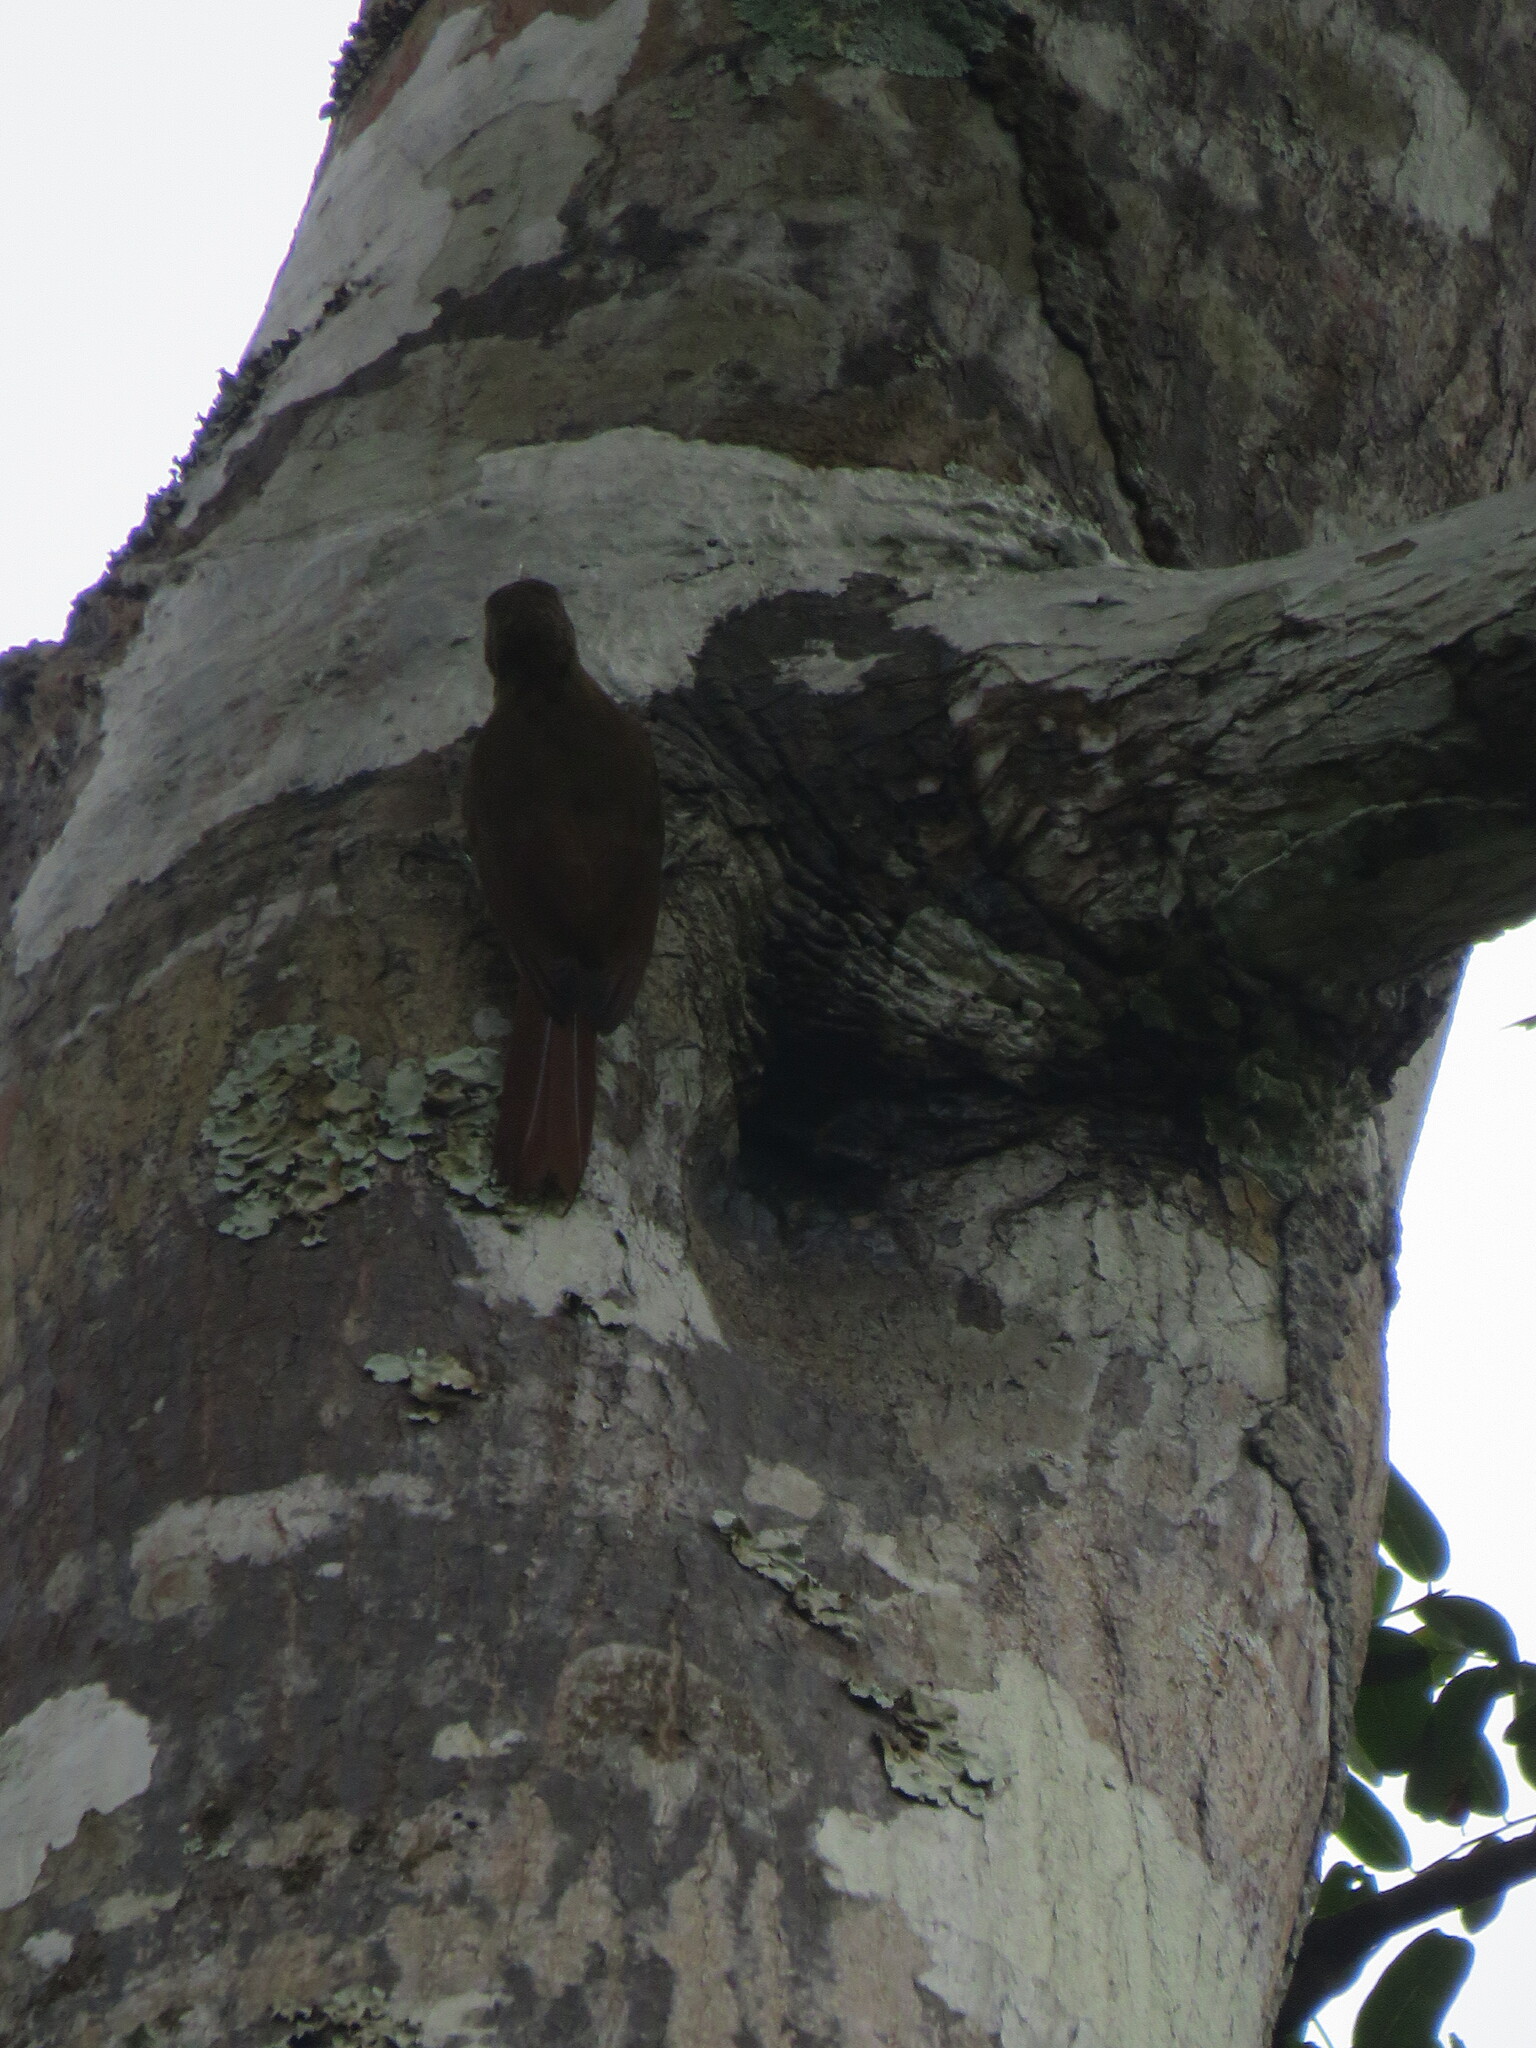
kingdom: Animalia
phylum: Chordata
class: Aves
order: Passeriformes
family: Furnariidae
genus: Xiphorhynchus
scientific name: Xiphorhynchus ocellatus
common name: Ocellated woodcreeper
